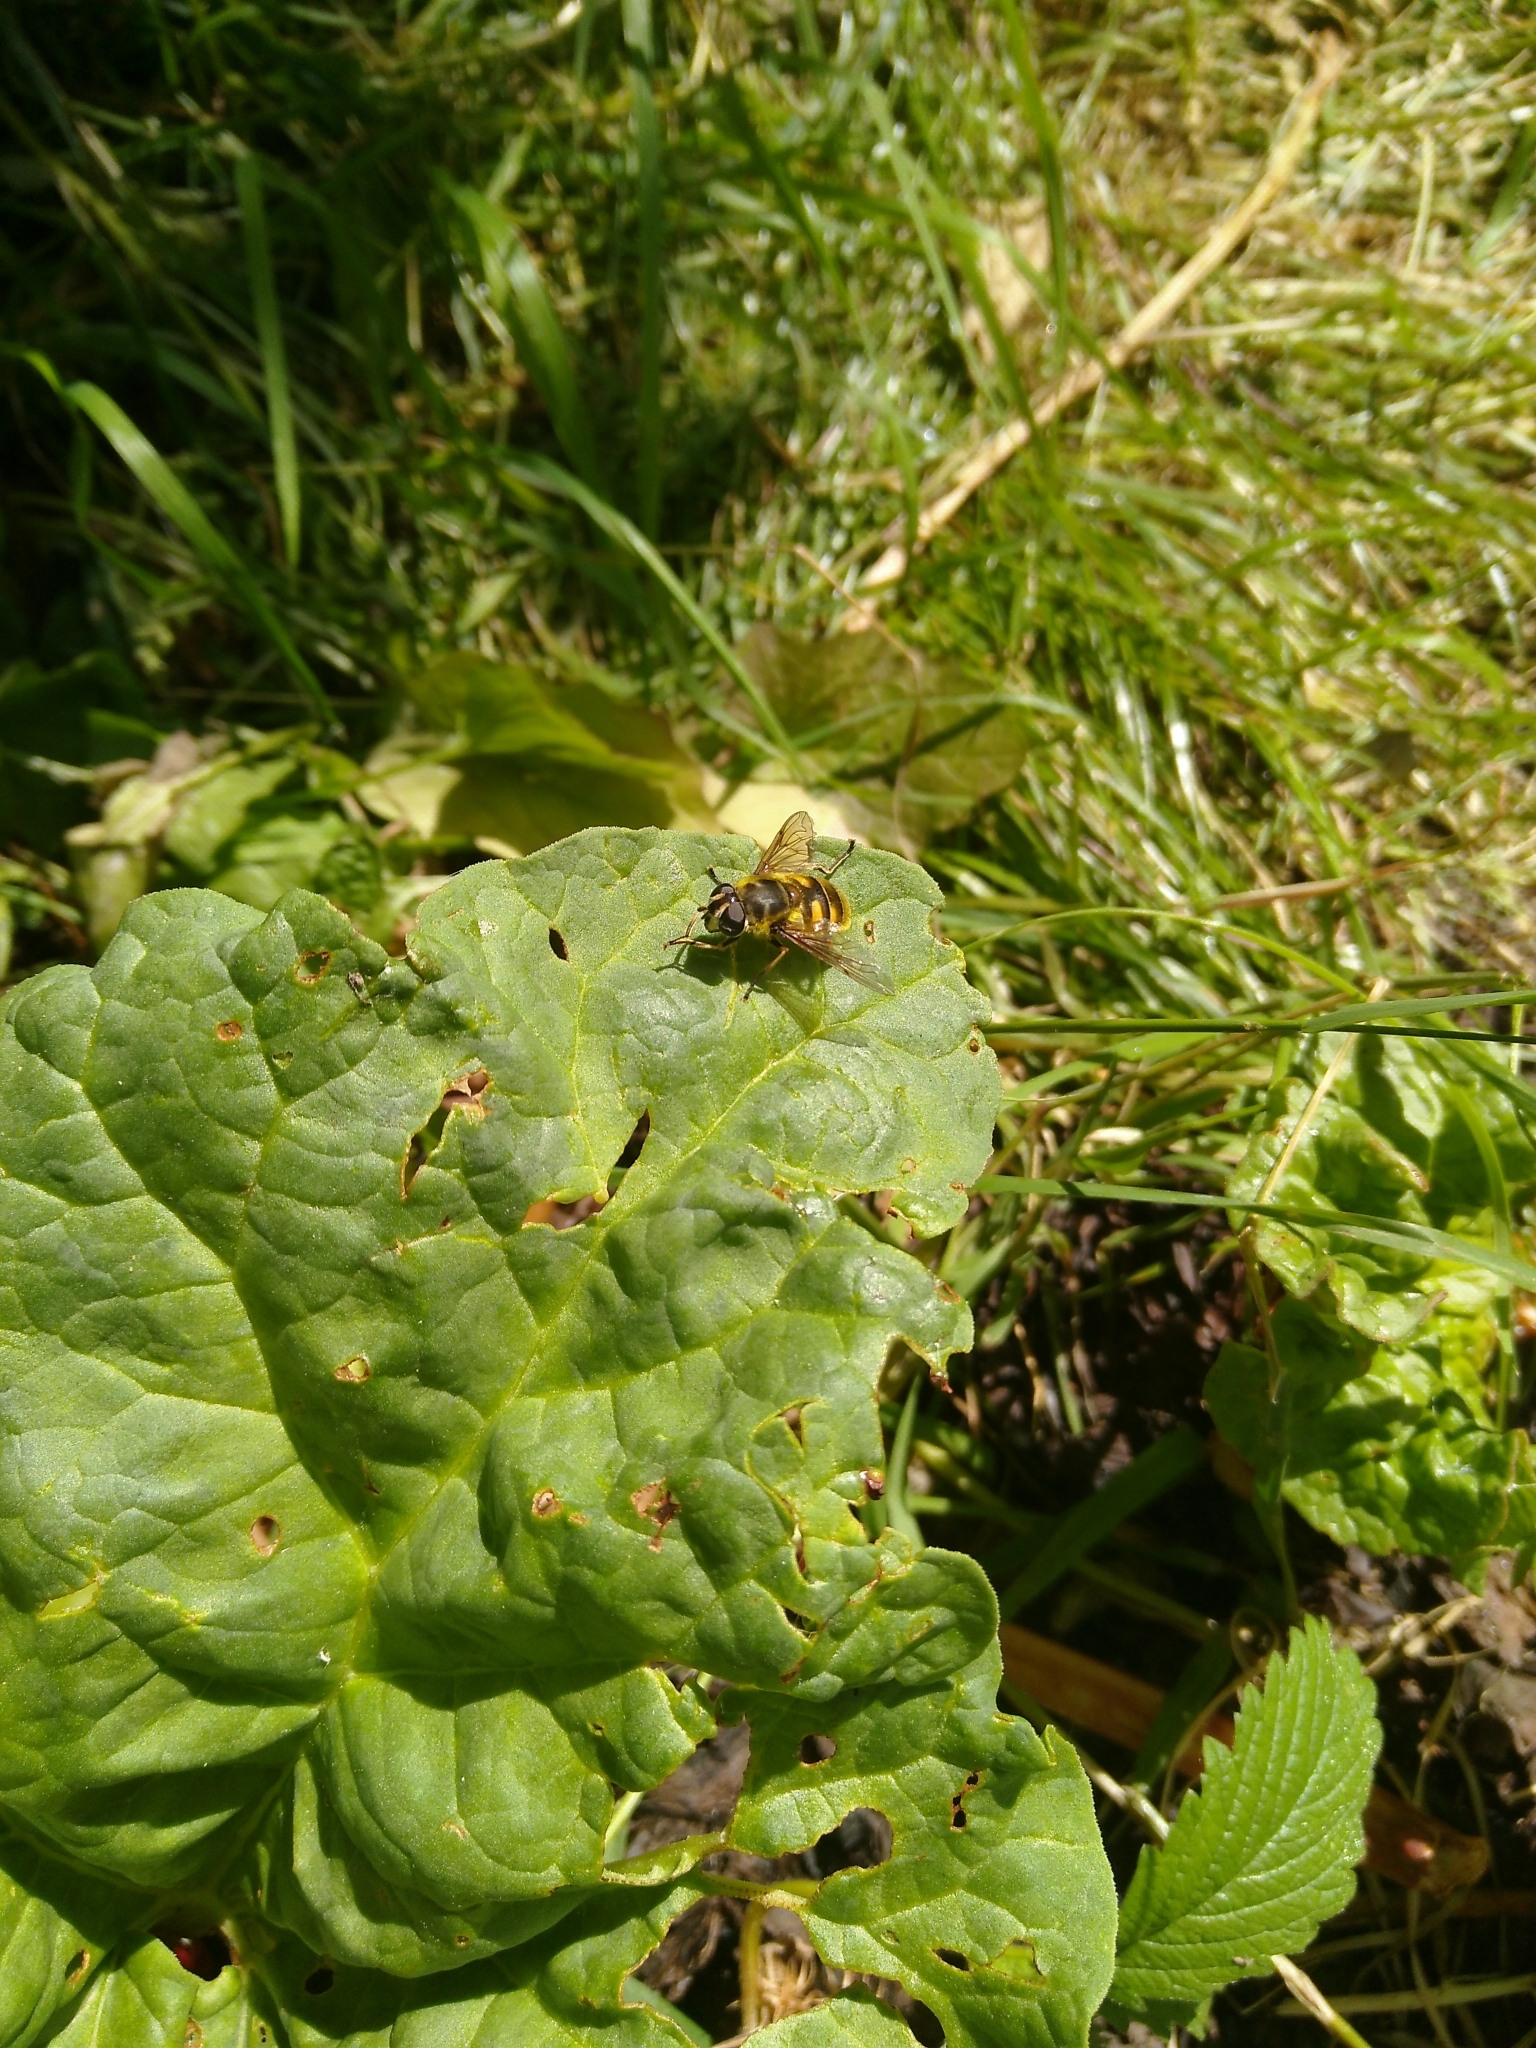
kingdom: Animalia
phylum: Arthropoda
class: Insecta
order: Diptera
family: Syrphidae
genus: Myathropa
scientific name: Myathropa florea
